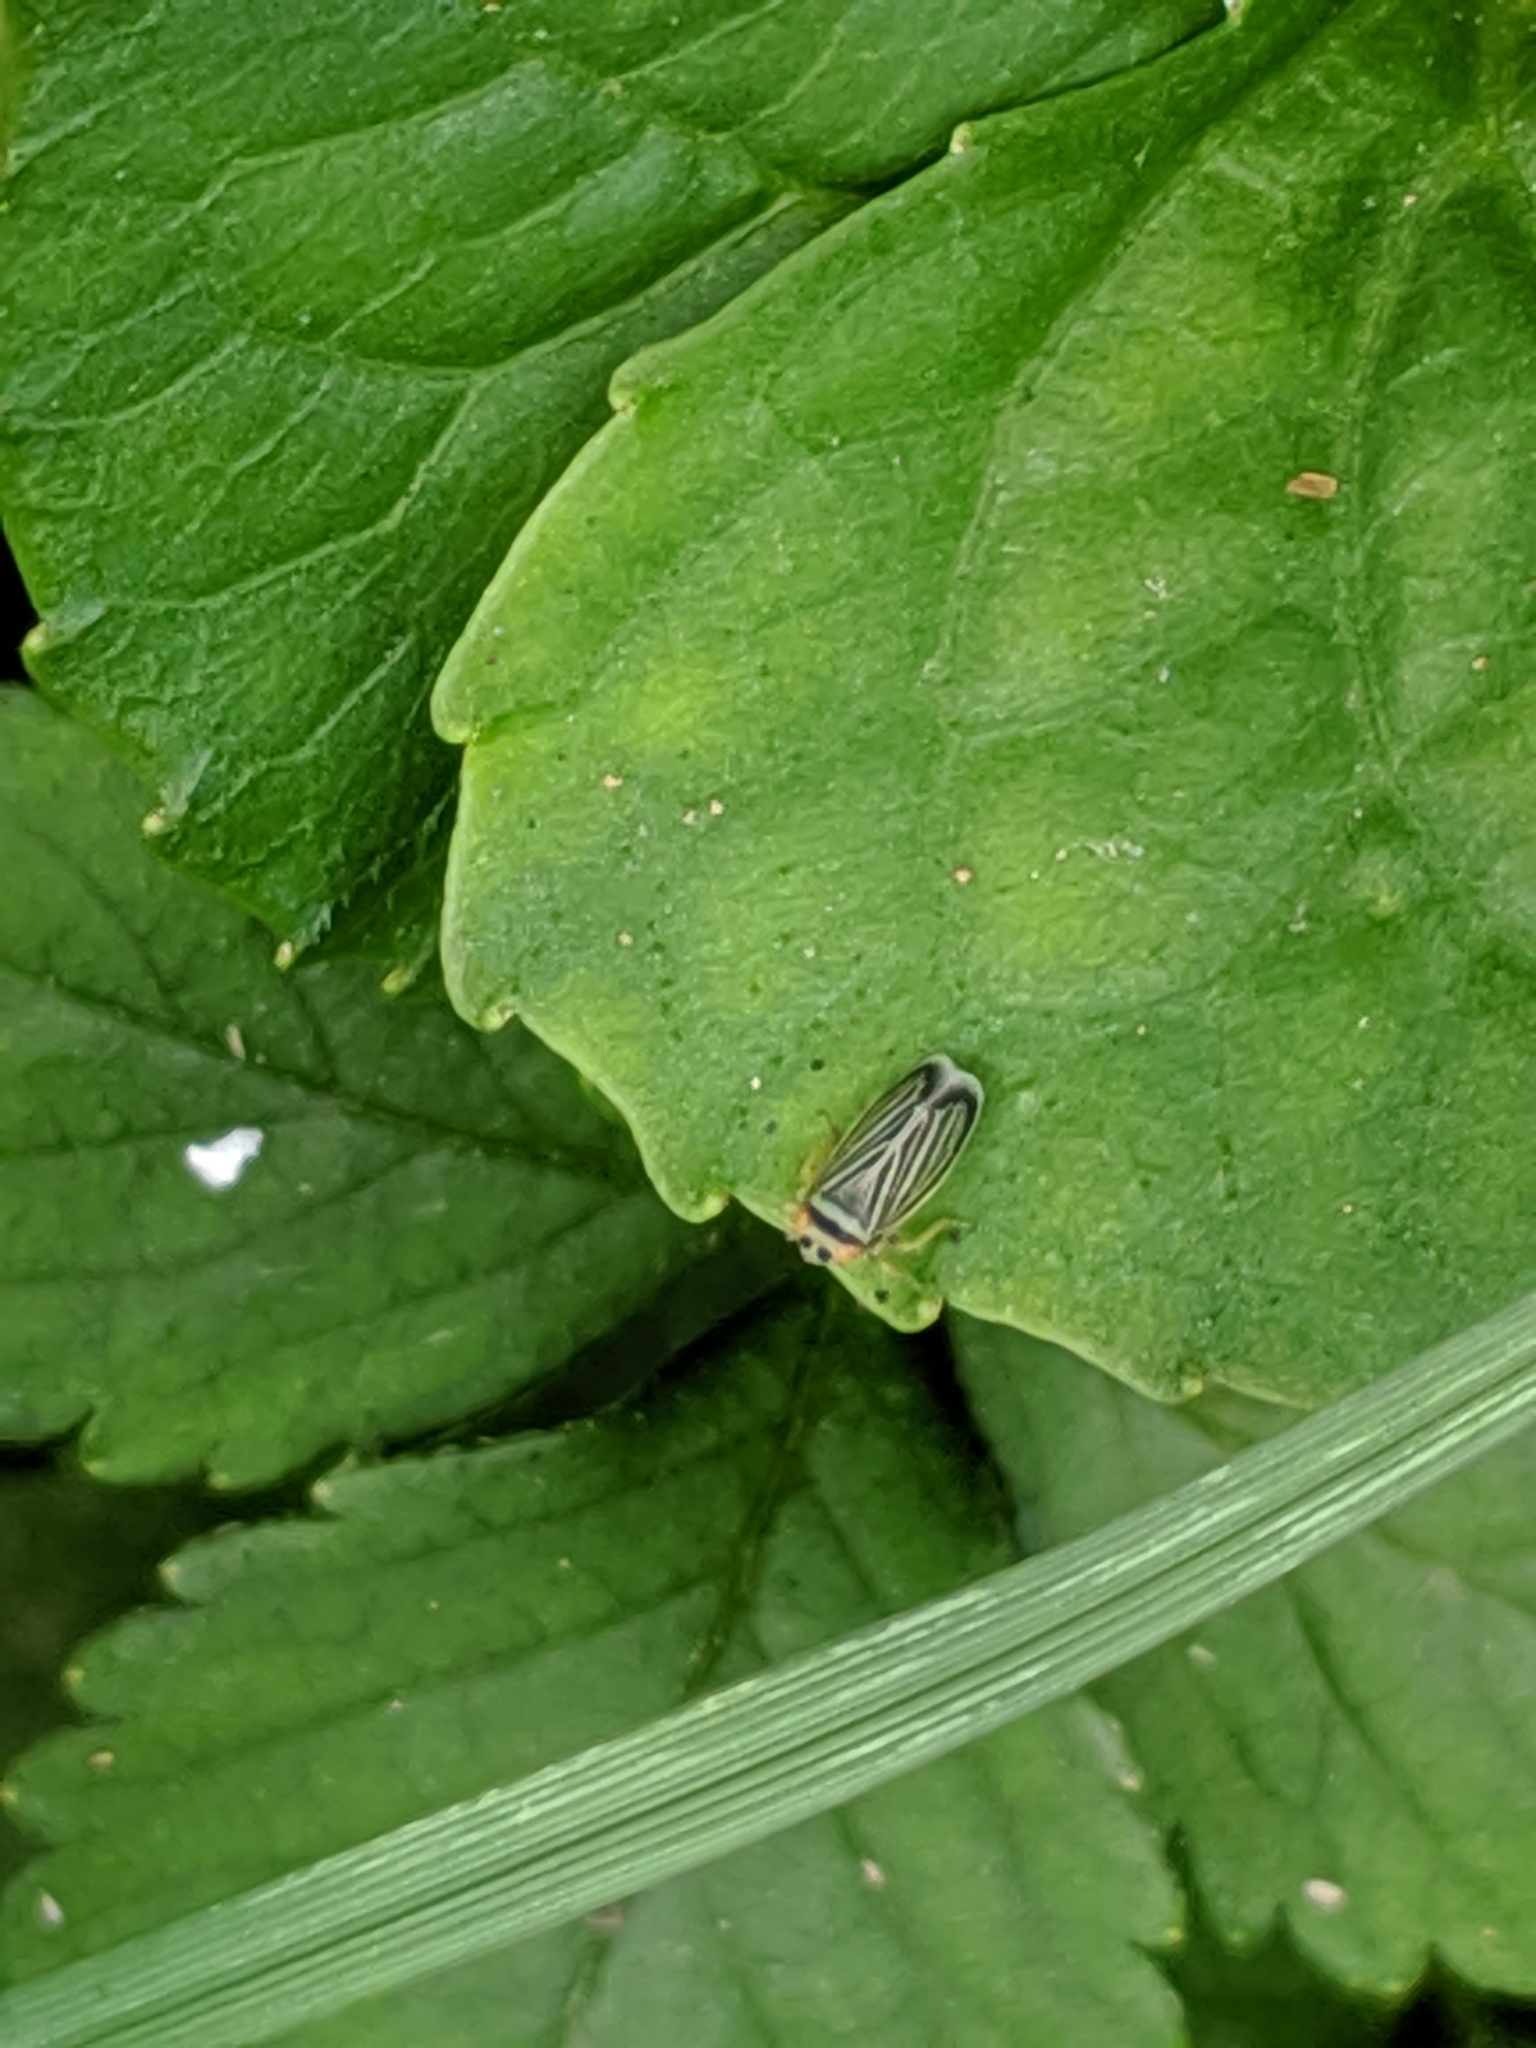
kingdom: Animalia
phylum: Arthropoda
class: Insecta
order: Hemiptera
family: Cicadellidae
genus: Amblysellus
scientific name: Amblysellus curtisii
